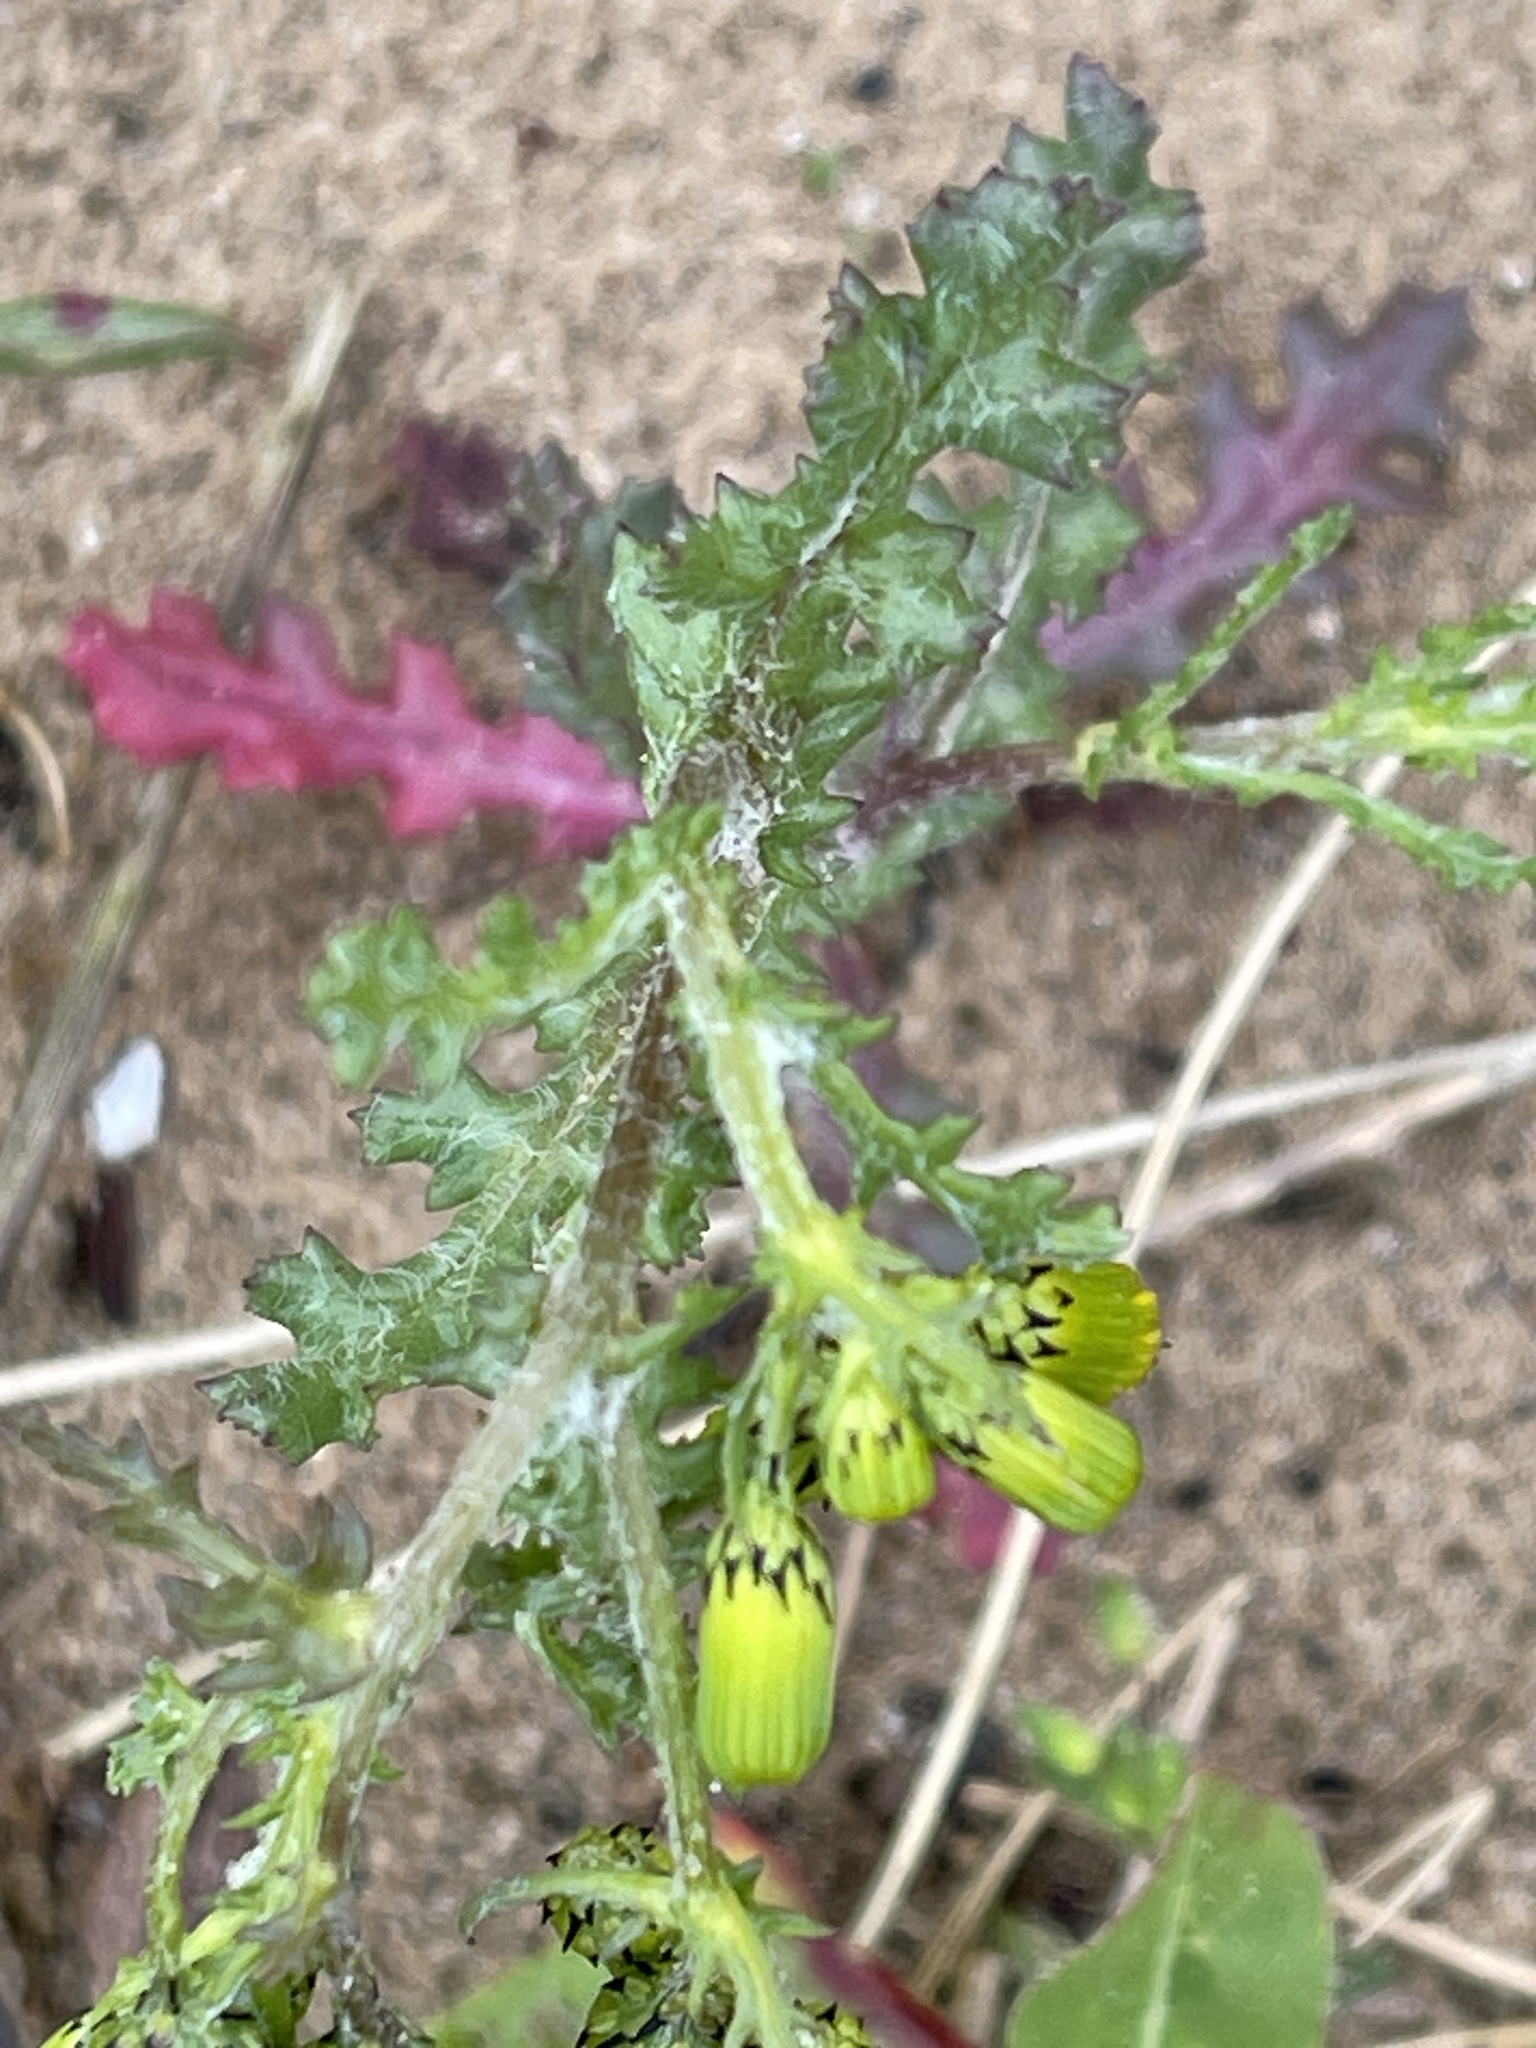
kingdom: Plantae
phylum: Tracheophyta
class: Magnoliopsida
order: Asterales
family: Asteraceae
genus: Senecio
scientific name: Senecio vulgaris
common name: Old-man-in-the-spring
